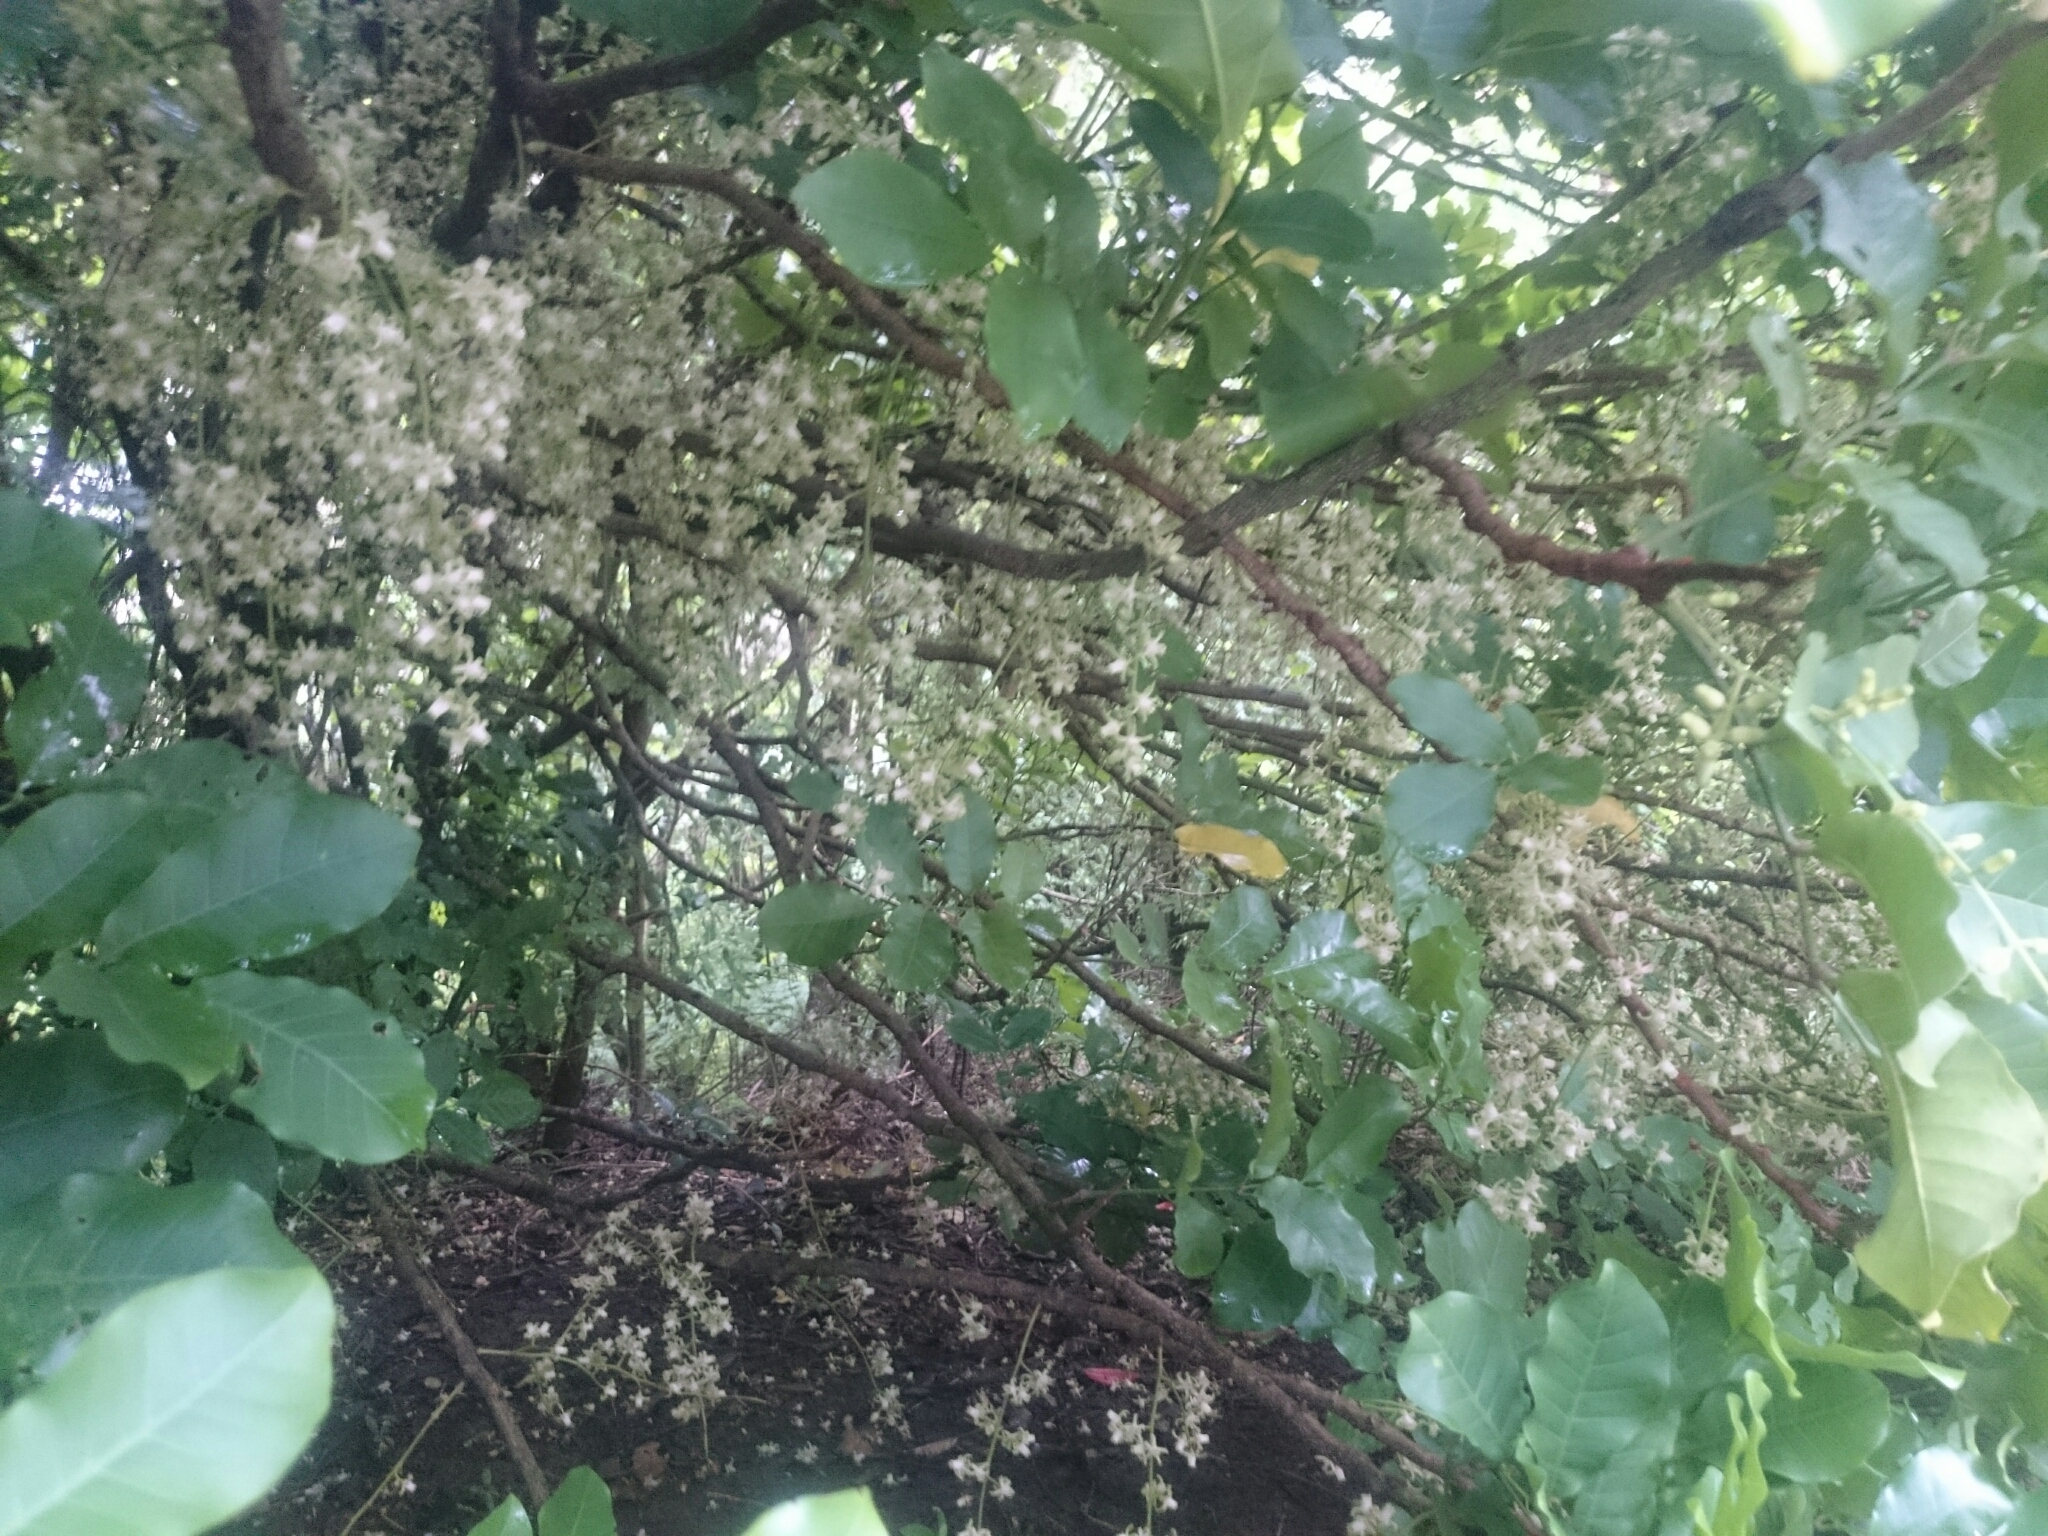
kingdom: Plantae
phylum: Tracheophyta
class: Magnoliopsida
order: Sapindales
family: Meliaceae
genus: Didymocheton
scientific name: Didymocheton spectabilis
